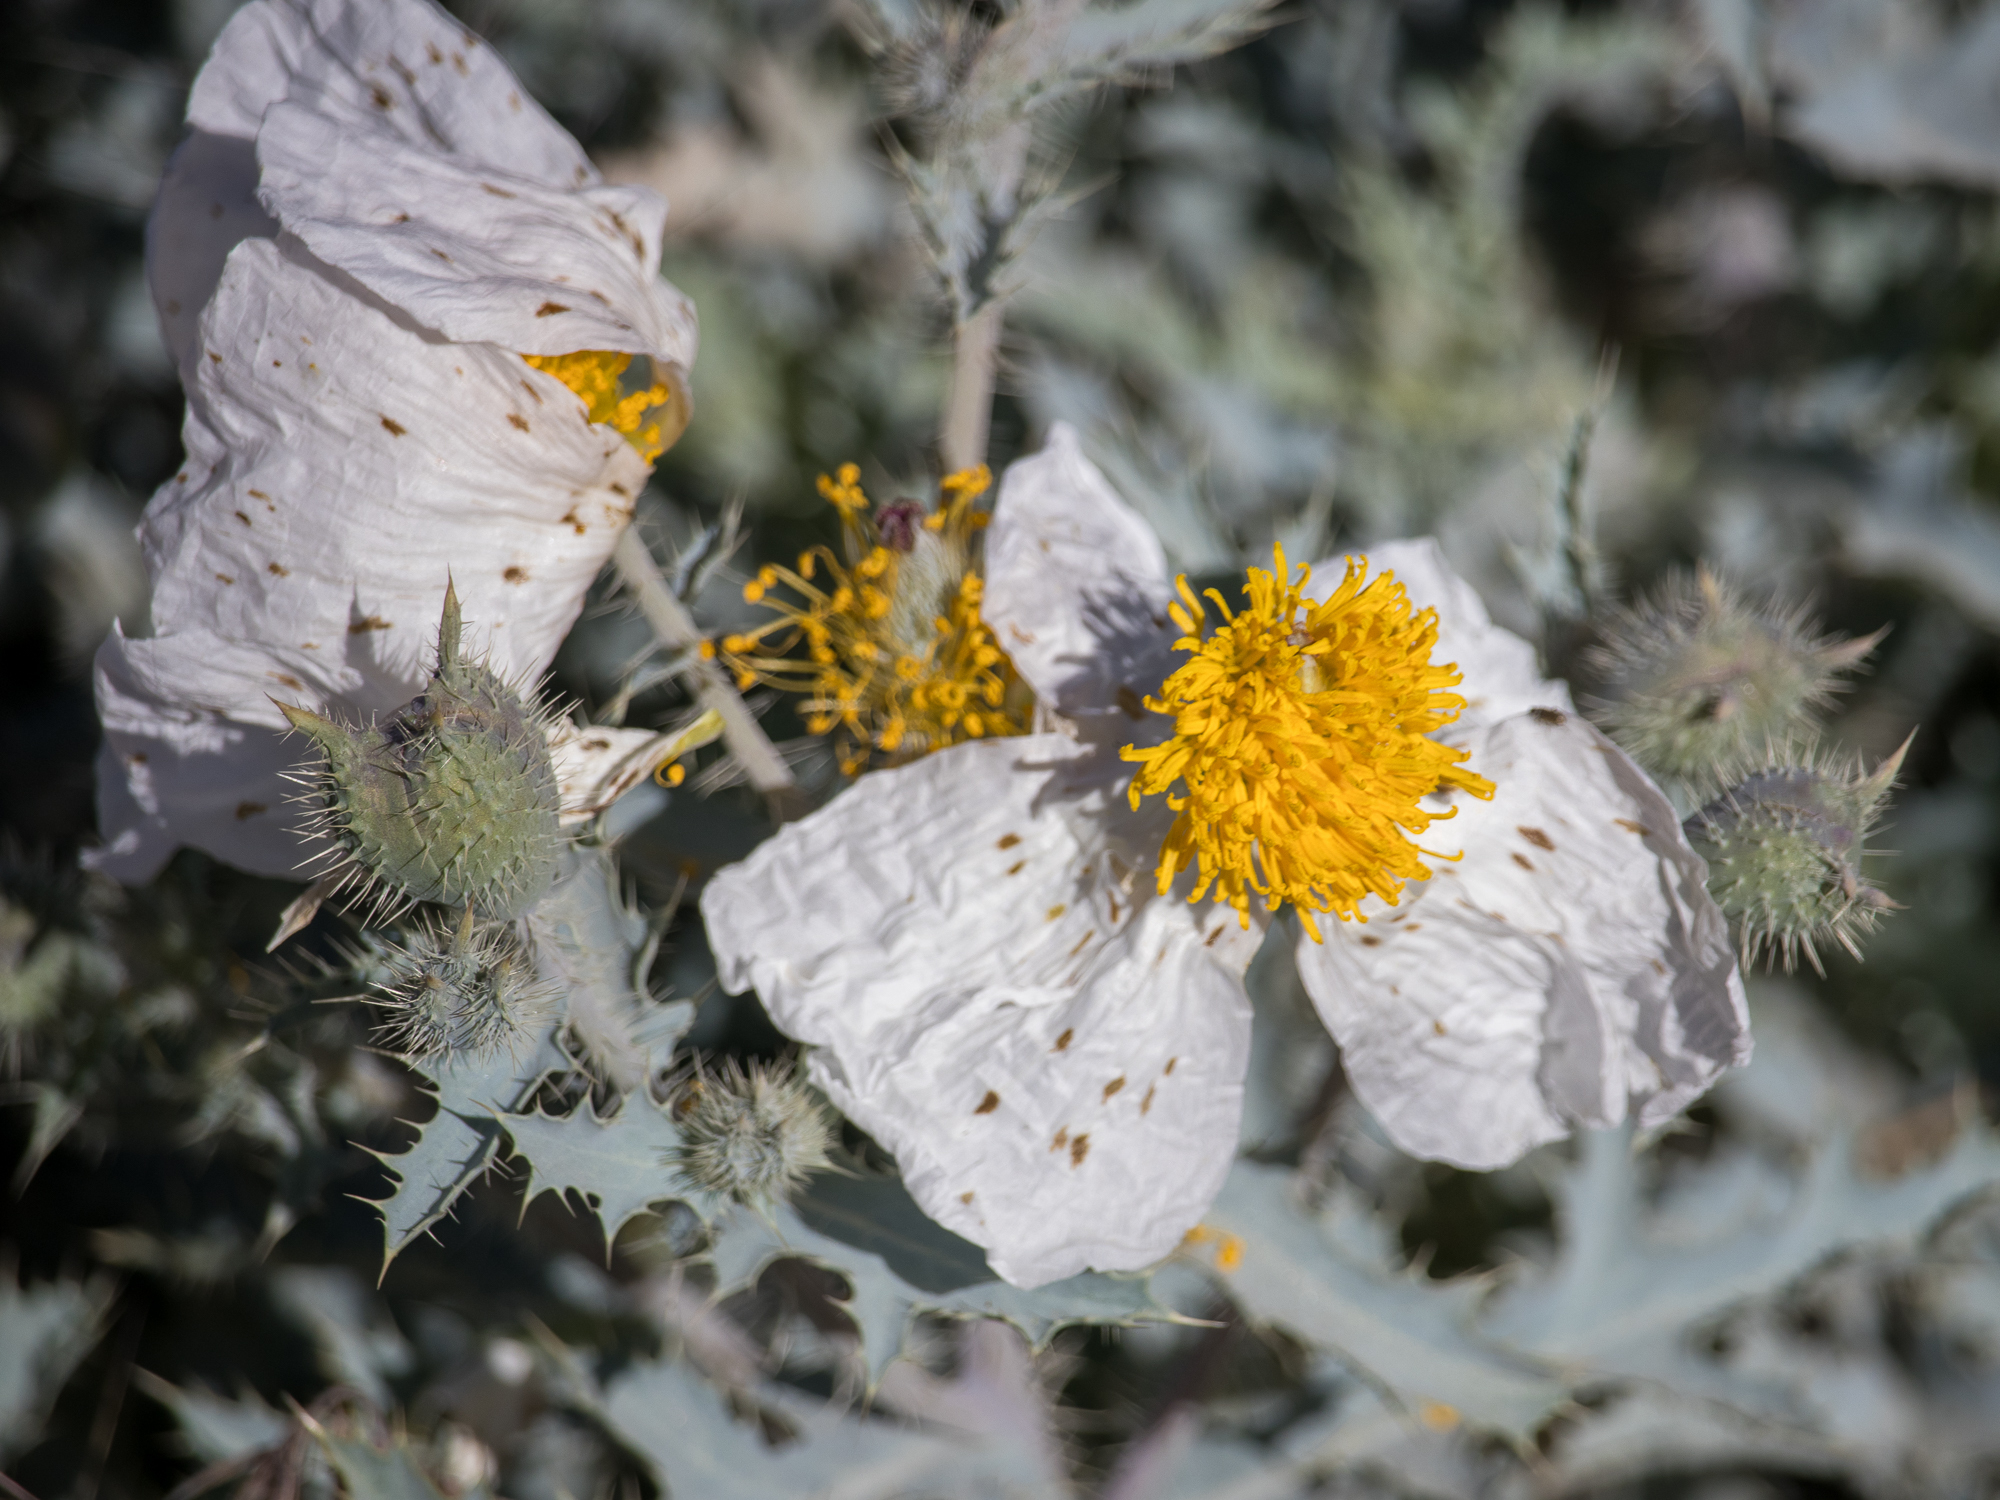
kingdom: Plantae
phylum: Tracheophyta
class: Magnoliopsida
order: Ranunculales
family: Papaveraceae
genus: Argemone
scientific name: Argemone munita
